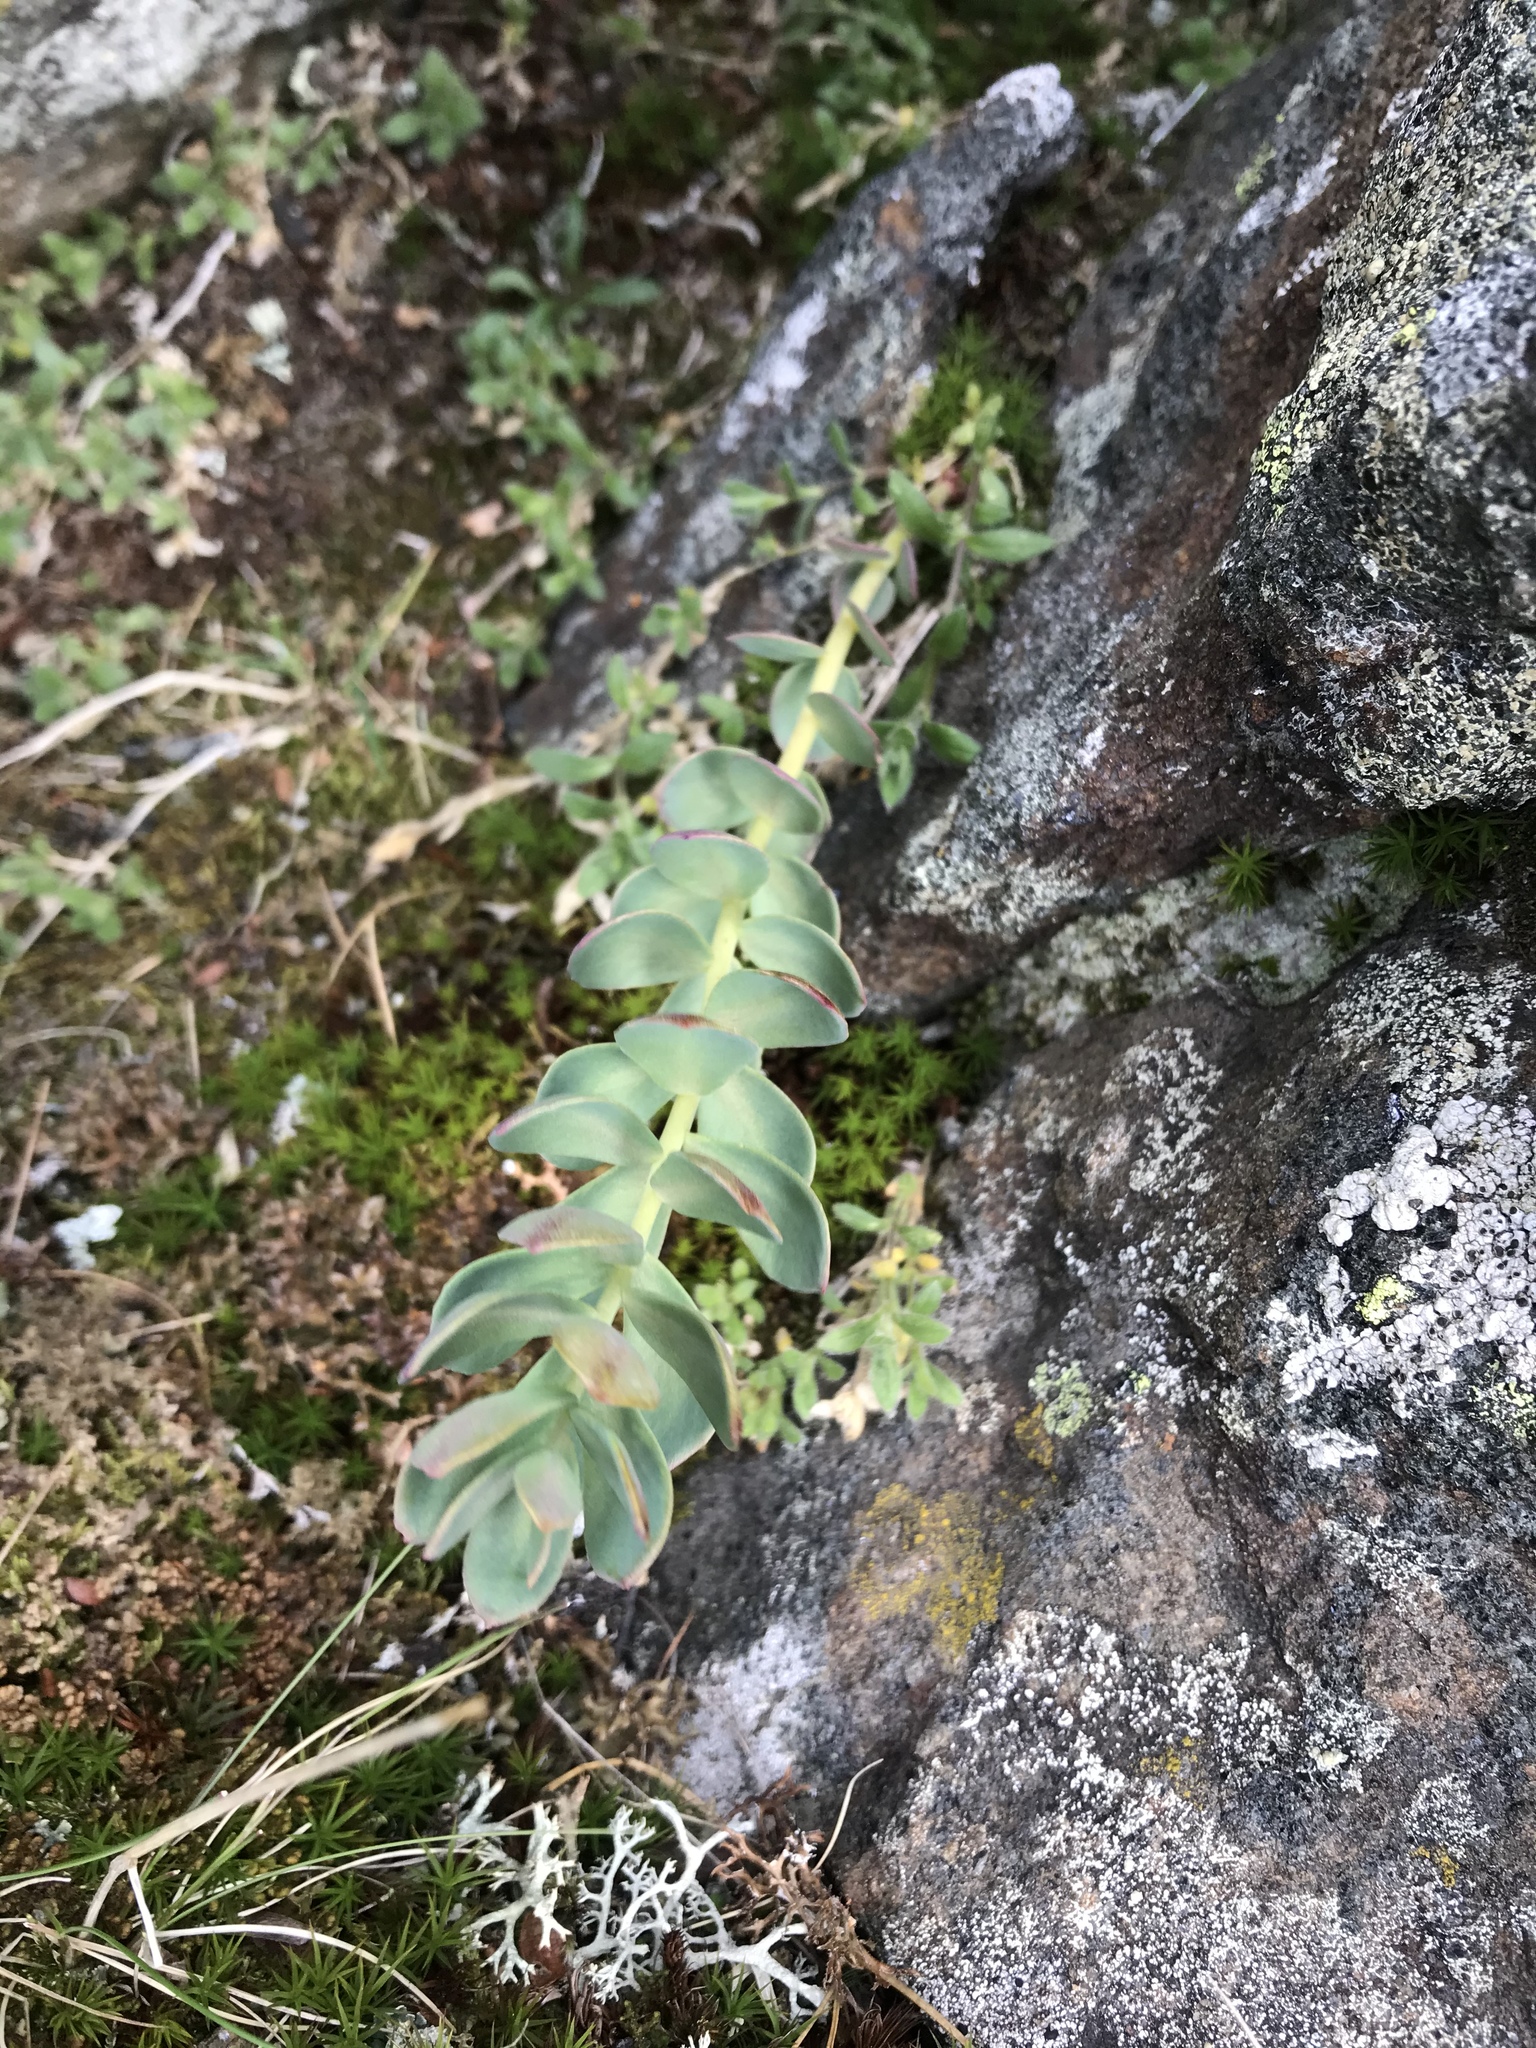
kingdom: Plantae
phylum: Tracheophyta
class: Magnoliopsida
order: Saxifragales
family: Crassulaceae
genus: Rhodiola
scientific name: Rhodiola rosea
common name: Roseroot
